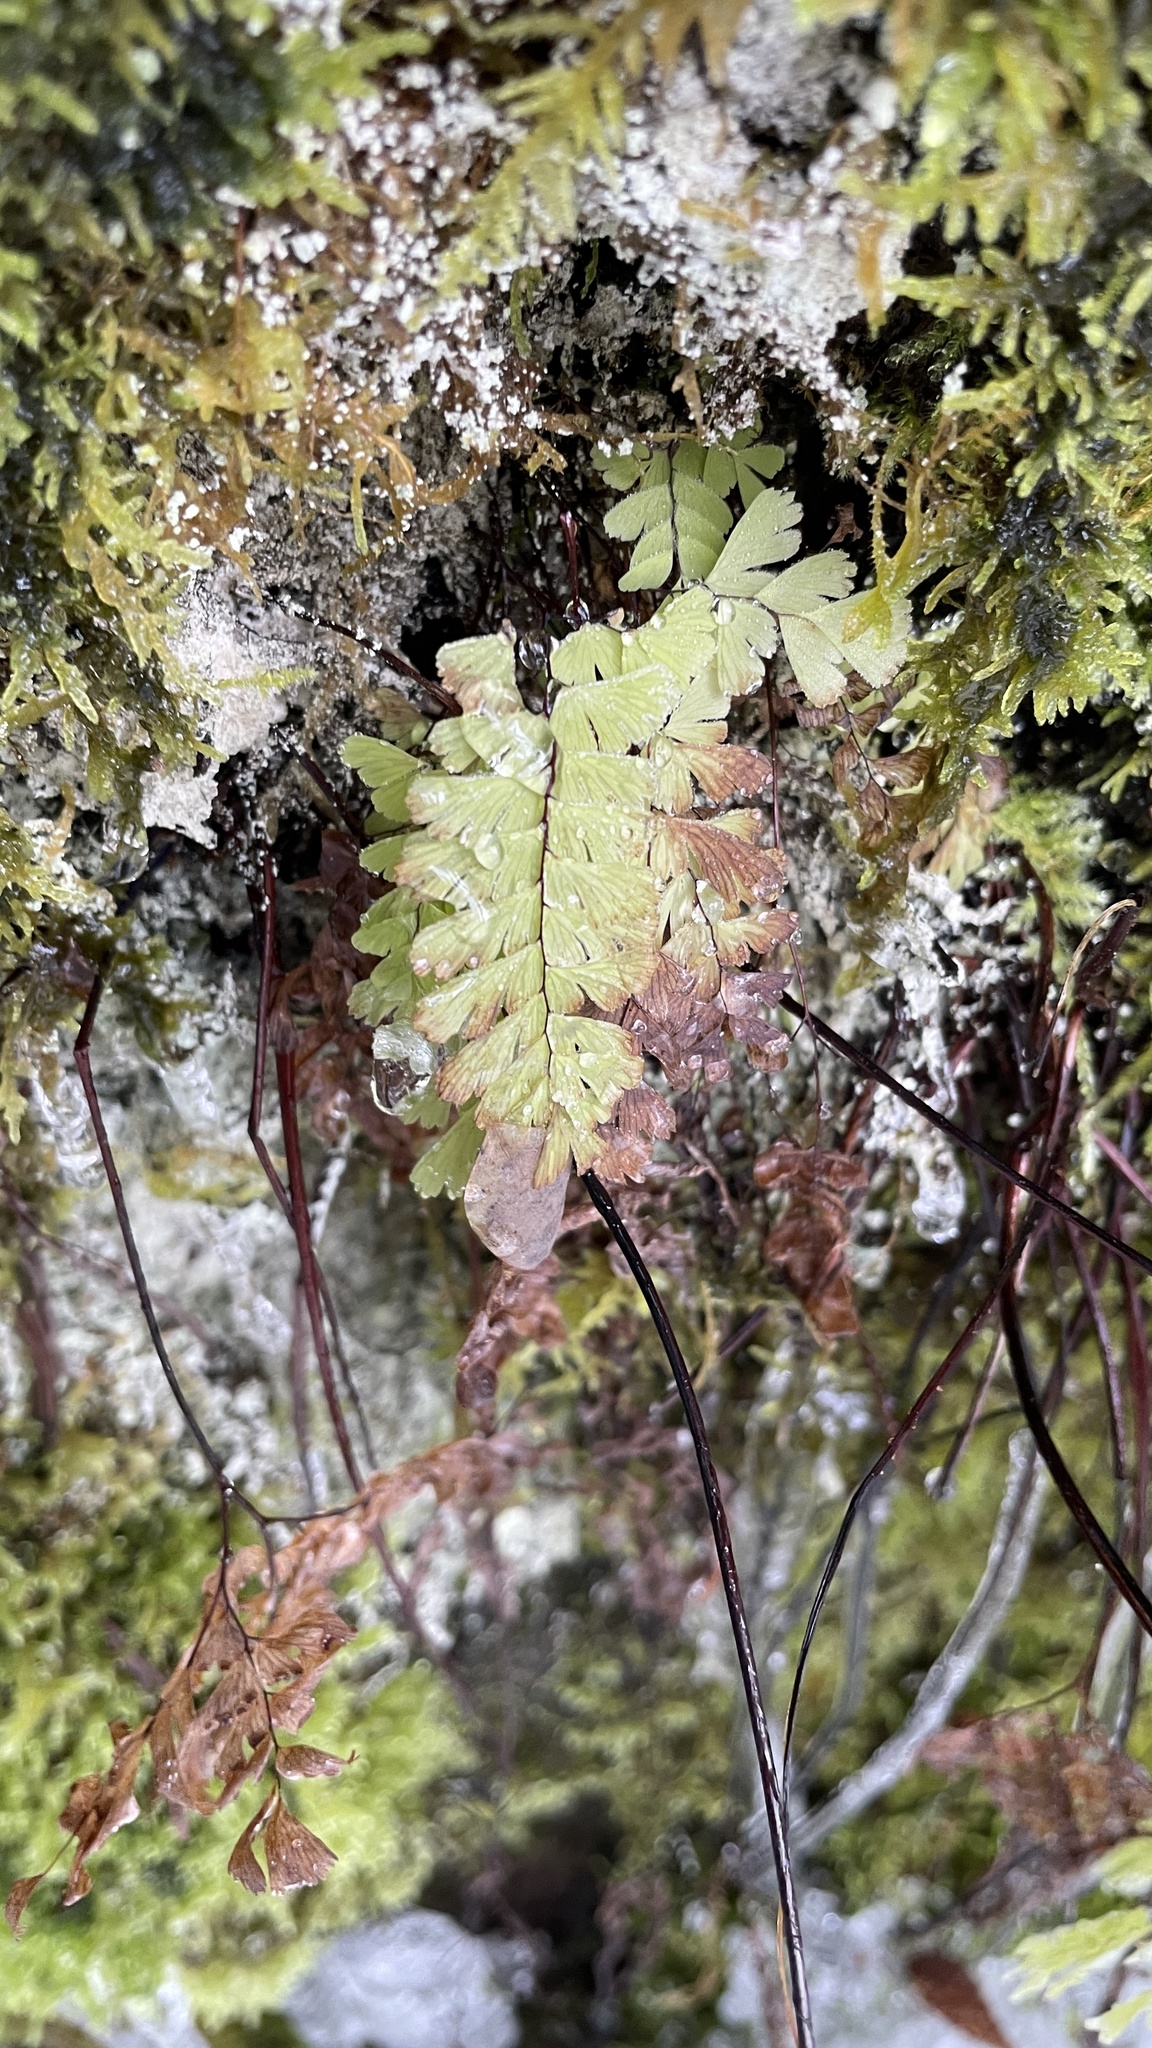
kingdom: Plantae
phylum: Tracheophyta
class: Polypodiopsida
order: Polypodiales
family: Pteridaceae
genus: Adiantum
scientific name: Adiantum aleuticum
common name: Aleutian maidenhair fern
